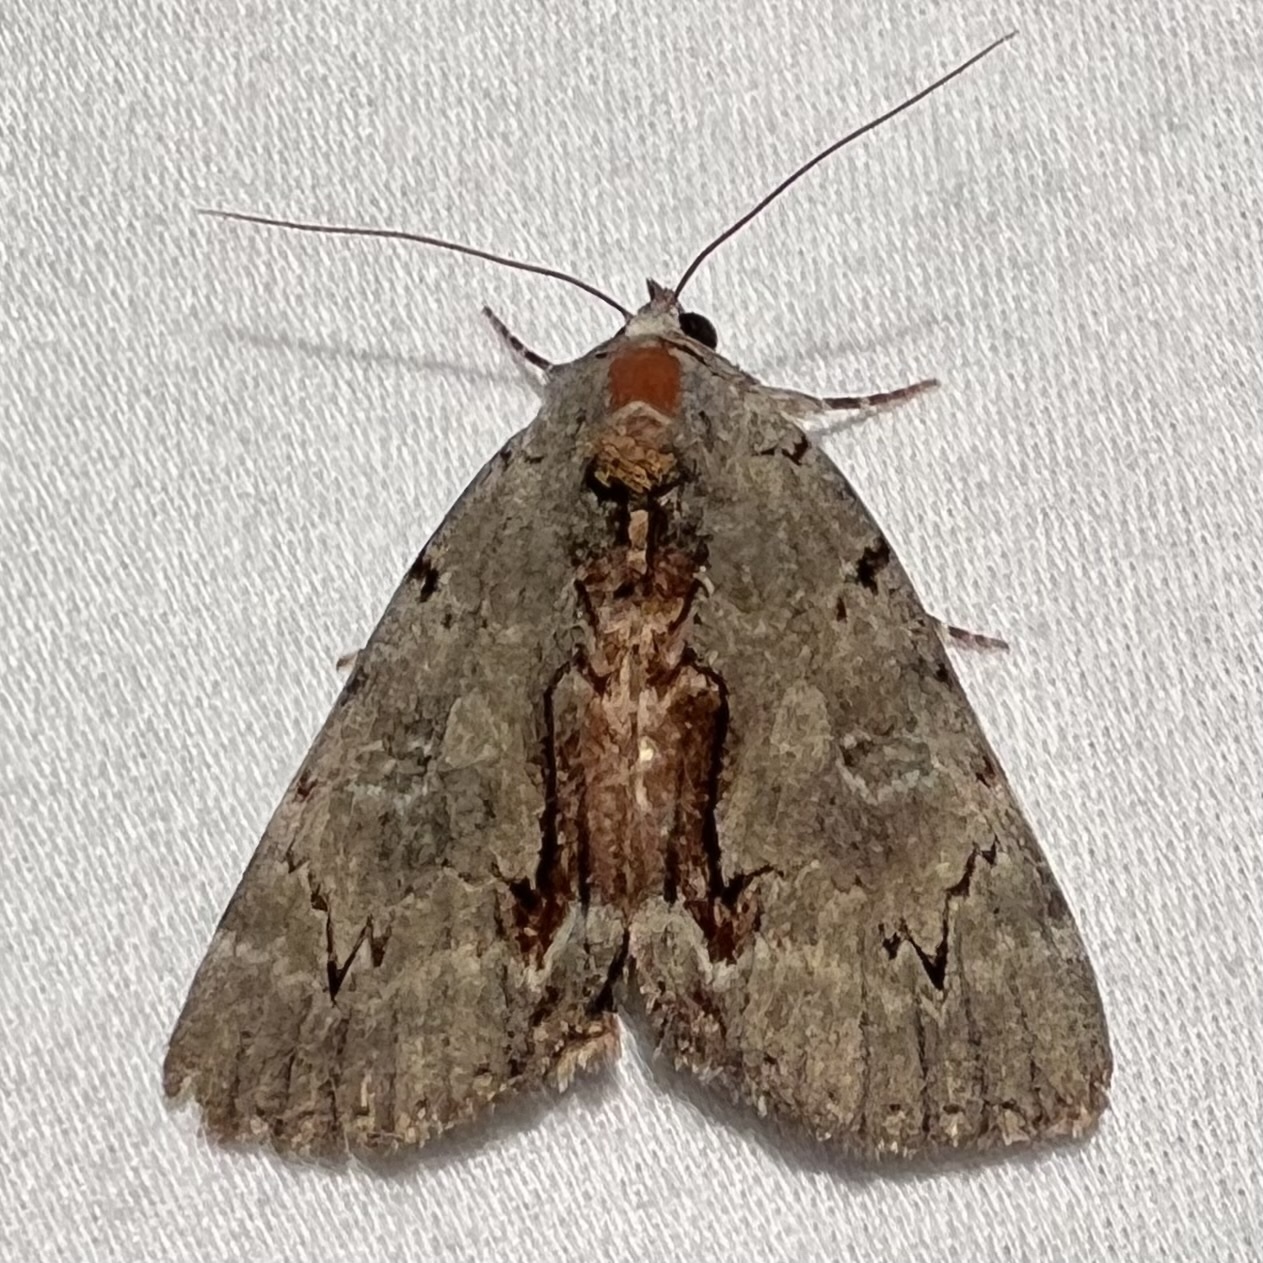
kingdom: Animalia
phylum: Arthropoda
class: Insecta
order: Lepidoptera
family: Erebidae
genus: Catocala
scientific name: Catocala grynea
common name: Woody underwing
